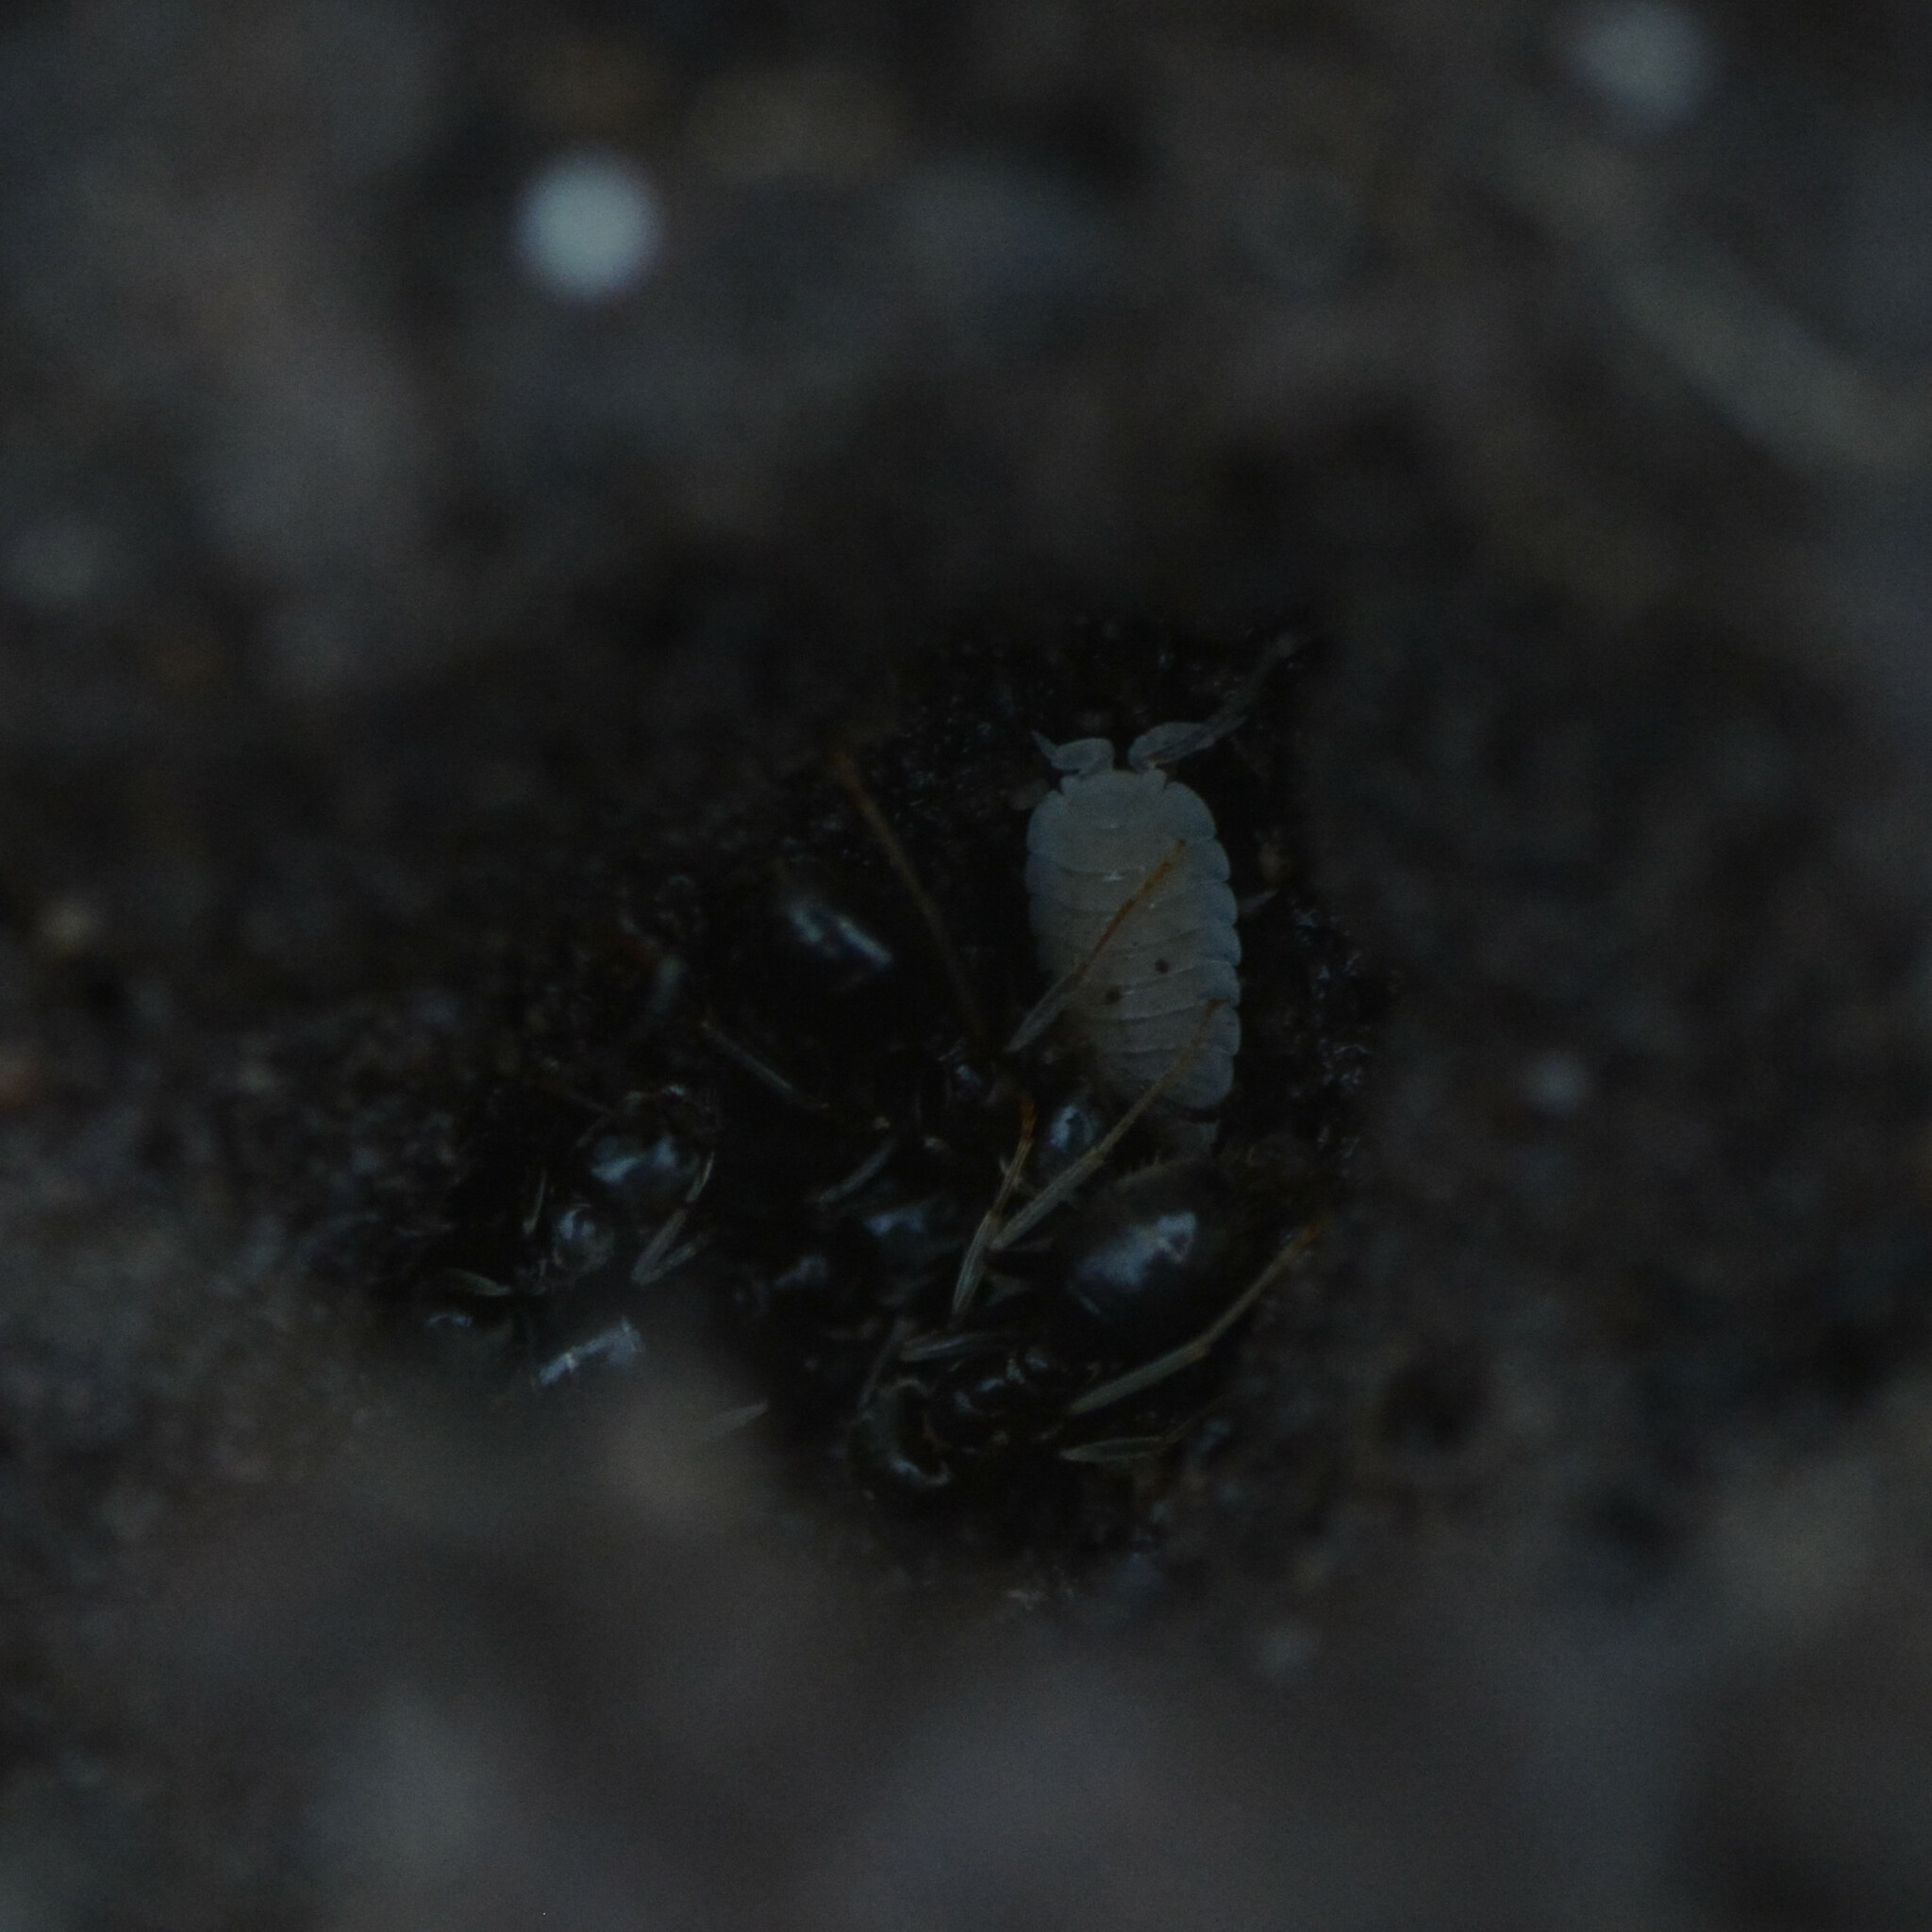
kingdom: Animalia
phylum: Arthropoda
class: Malacostraca
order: Isopoda
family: Platyarthridae
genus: Platyarthrus
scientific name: Platyarthrus hoffmannseggii
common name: Ant woodlouse
